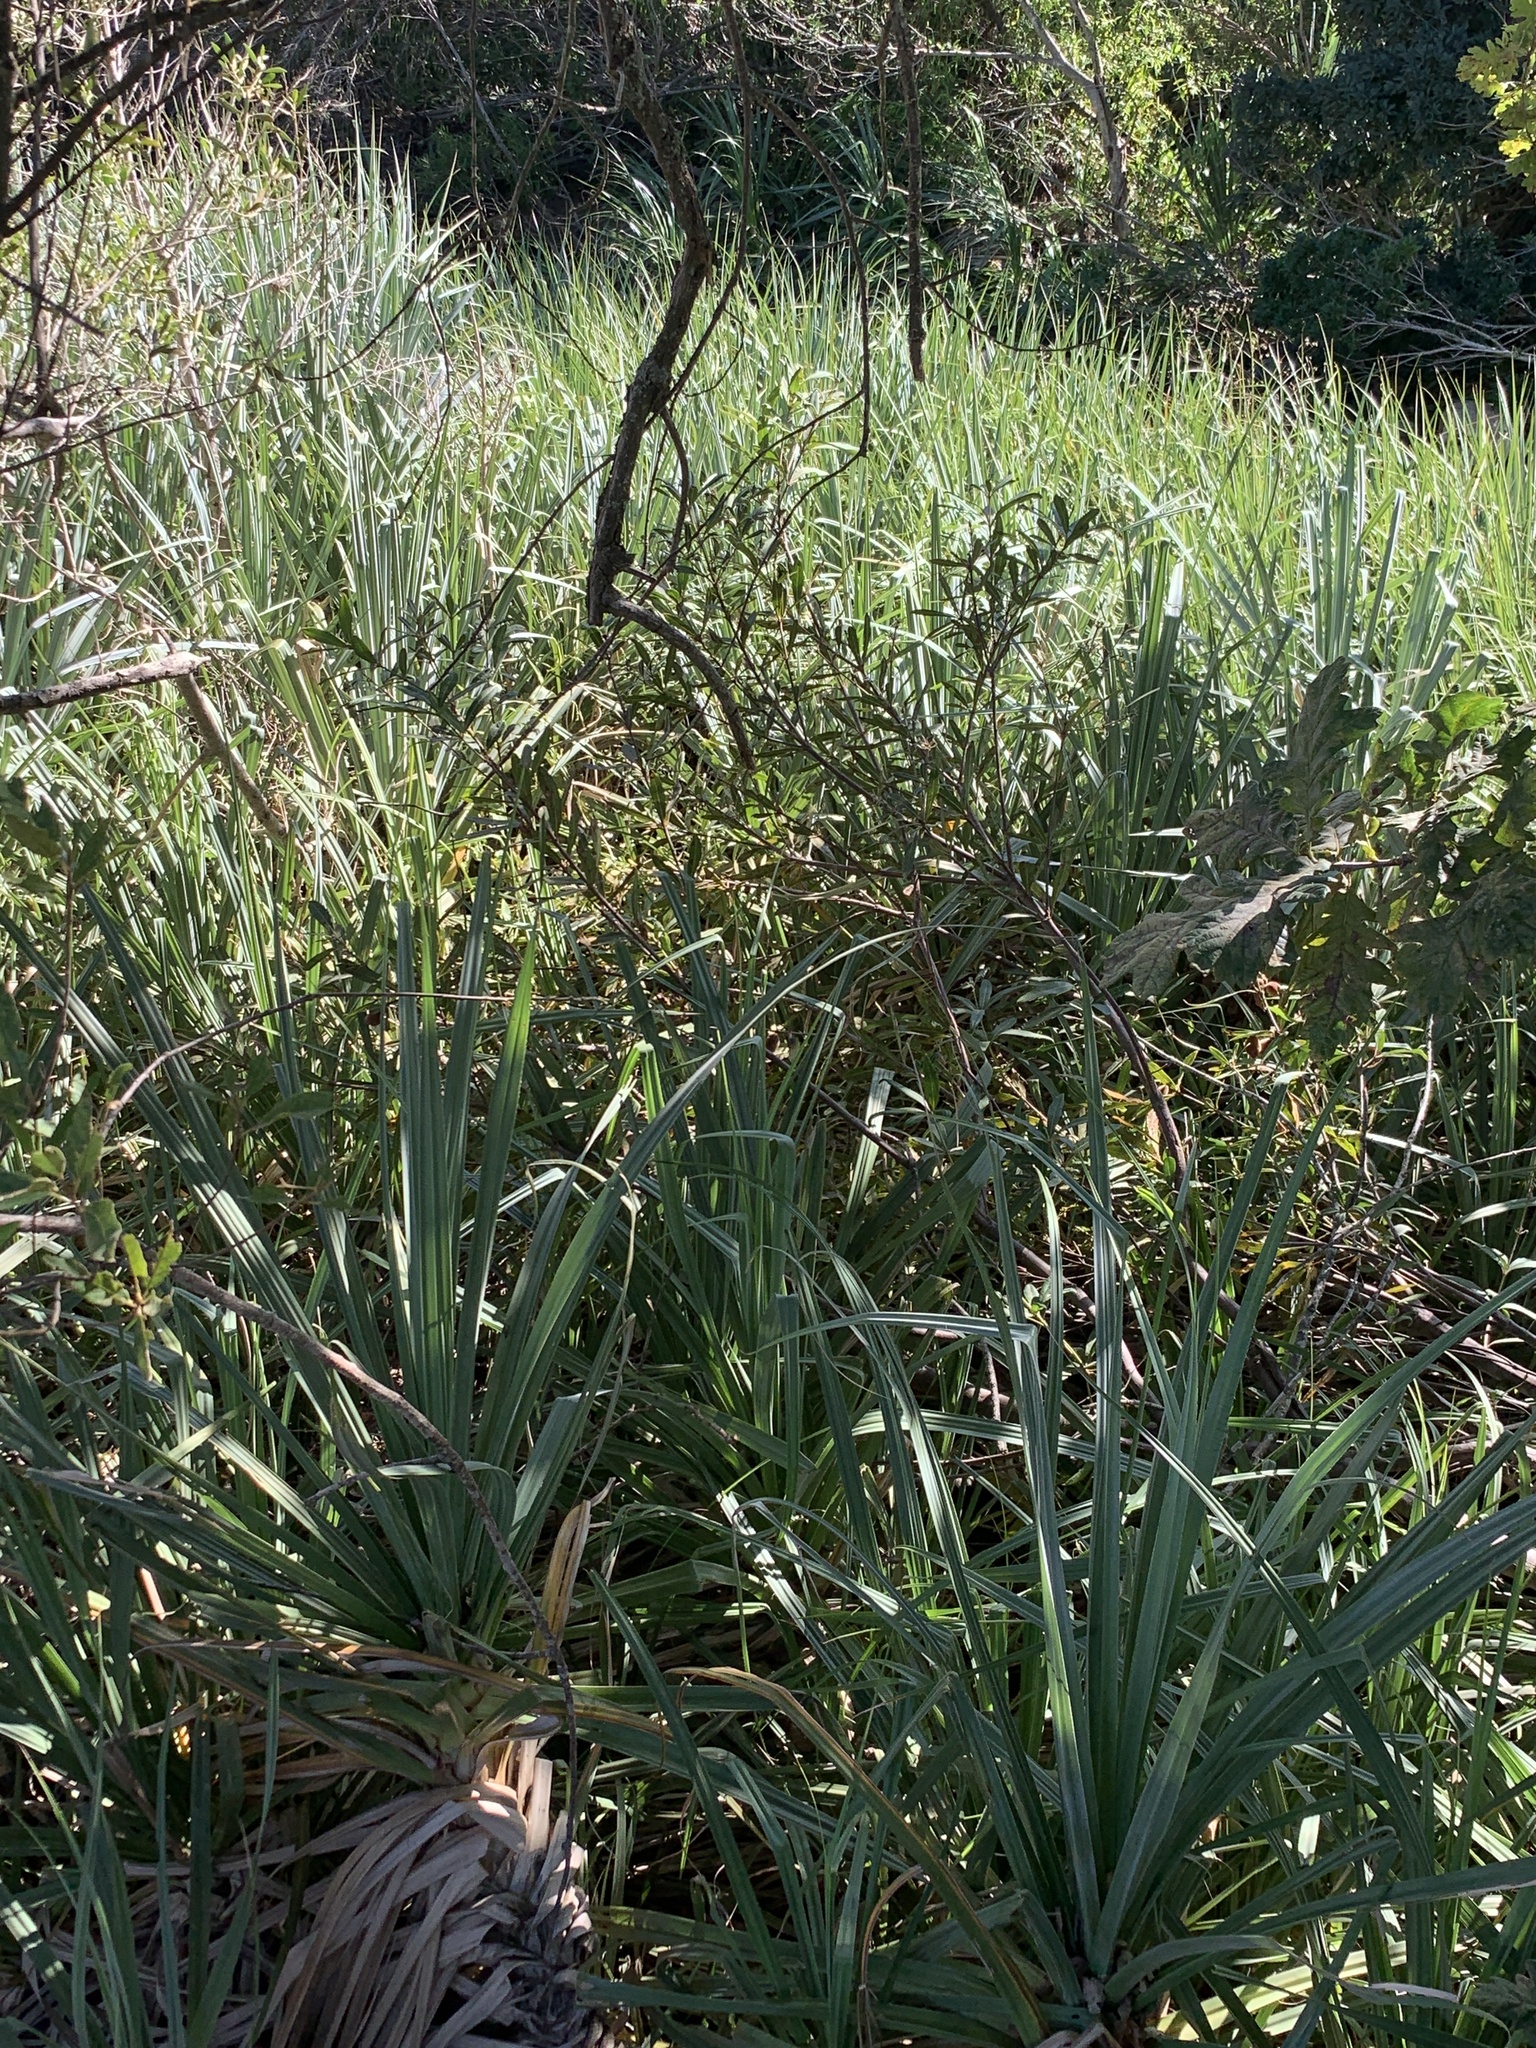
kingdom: Plantae
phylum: Tracheophyta
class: Liliopsida
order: Poales
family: Thurniaceae
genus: Prionium
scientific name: Prionium serratum
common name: Palmiet
